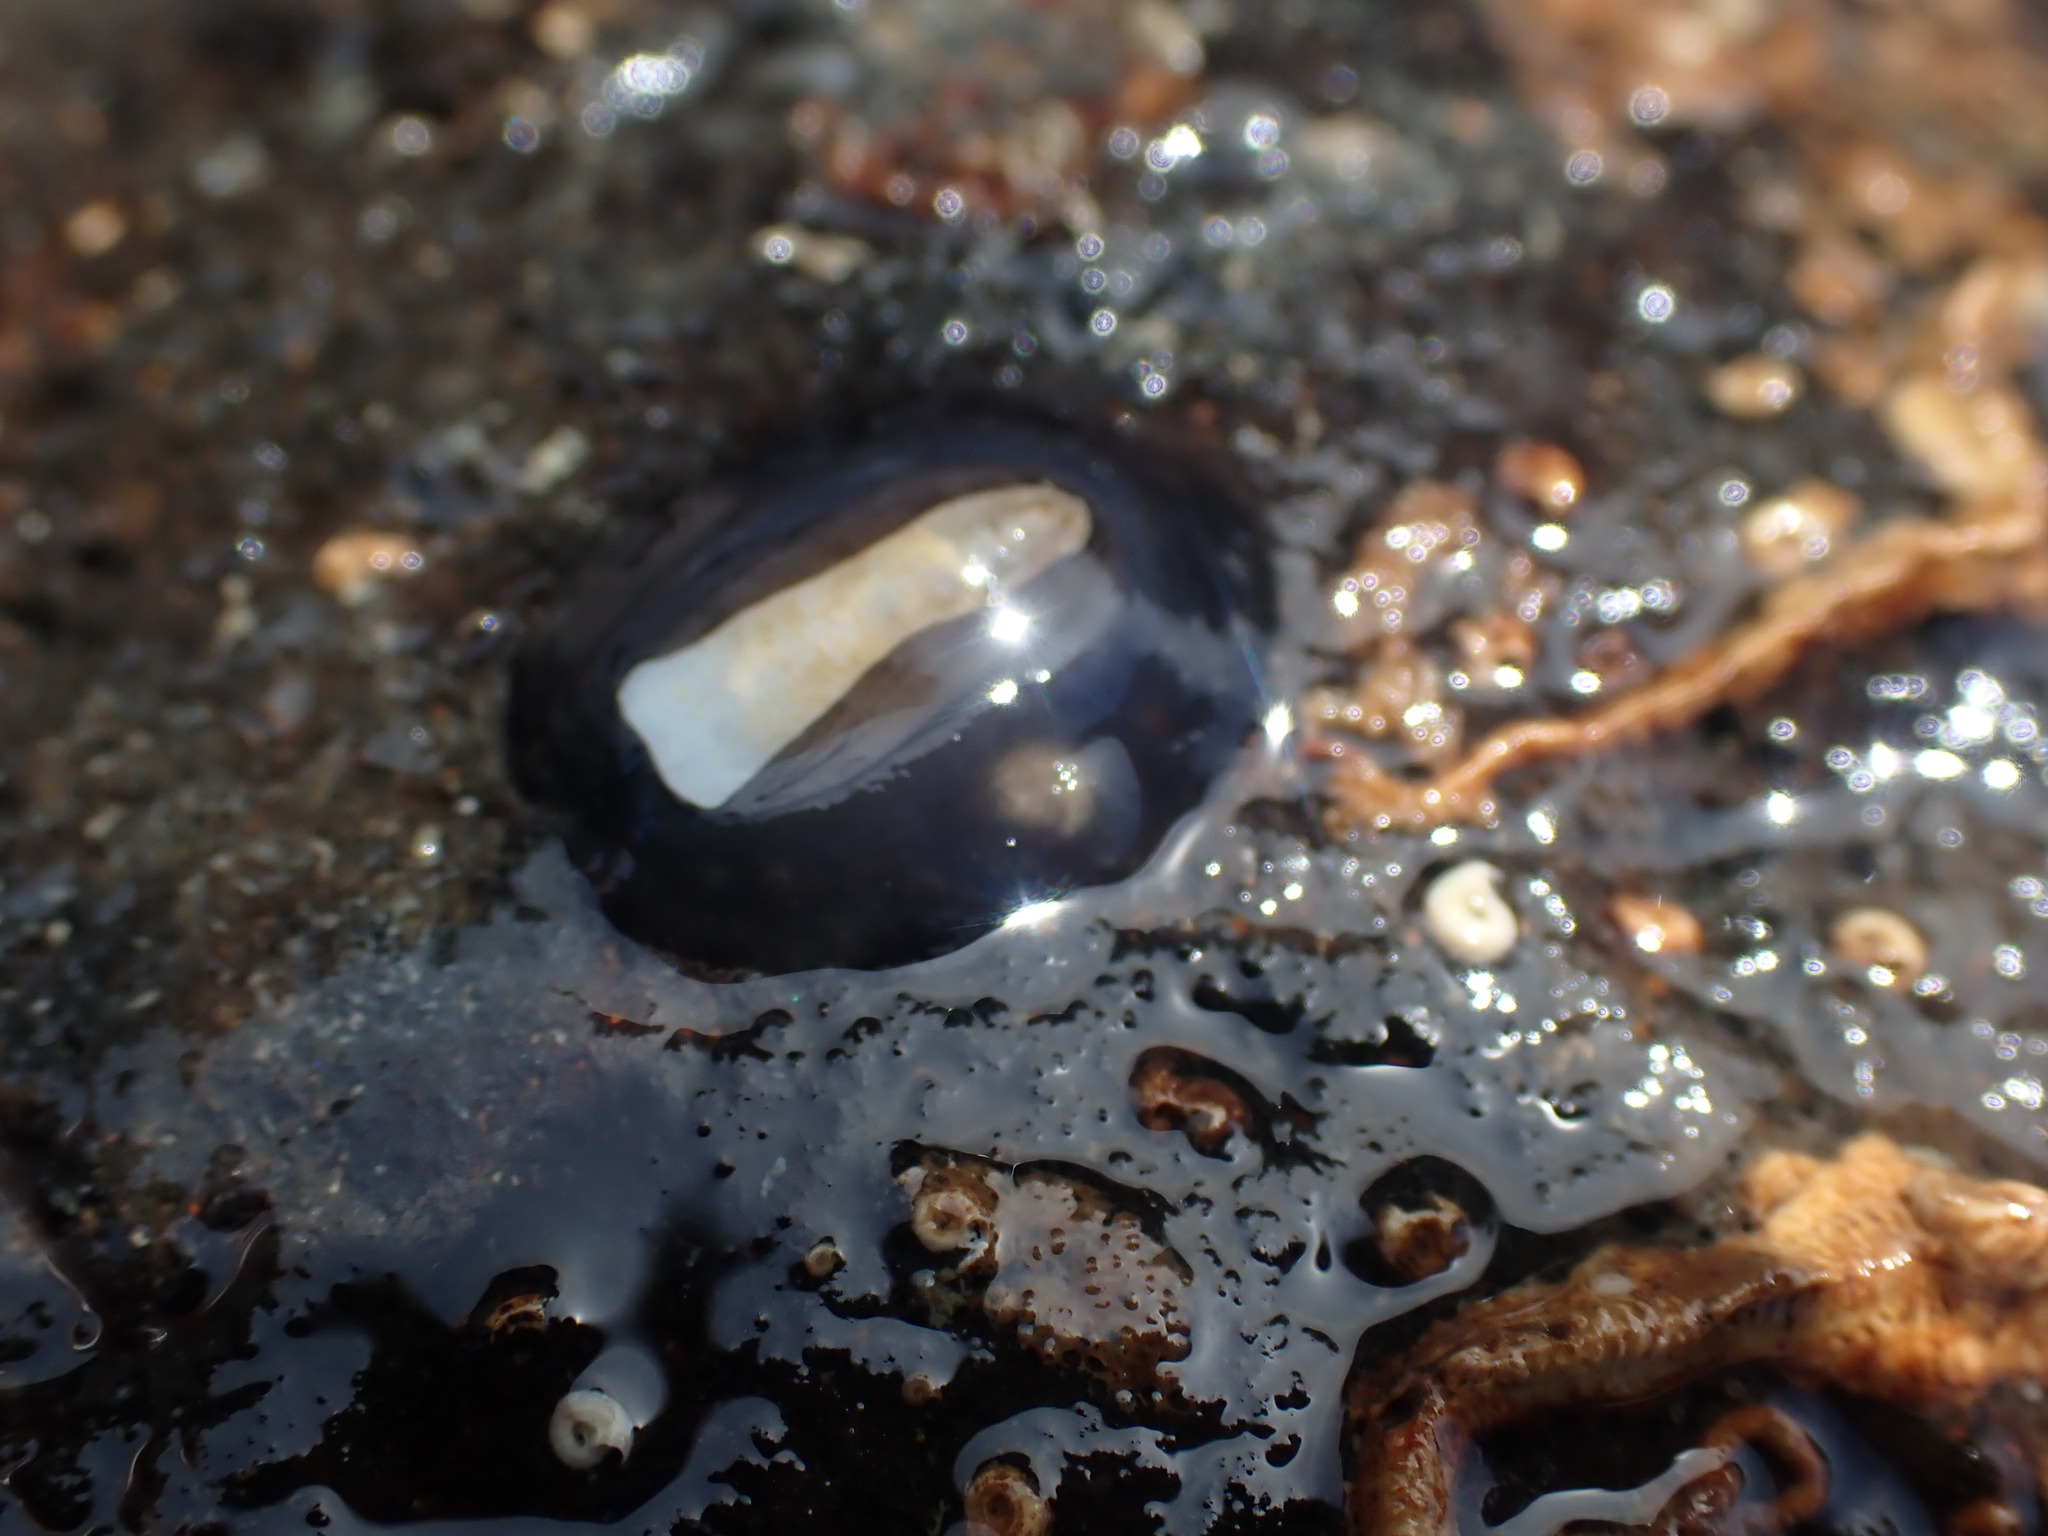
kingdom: Animalia
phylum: Mollusca
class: Gastropoda
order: Lepetellida
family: Fissurellidae
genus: Scutus
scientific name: Scutus breviculus
